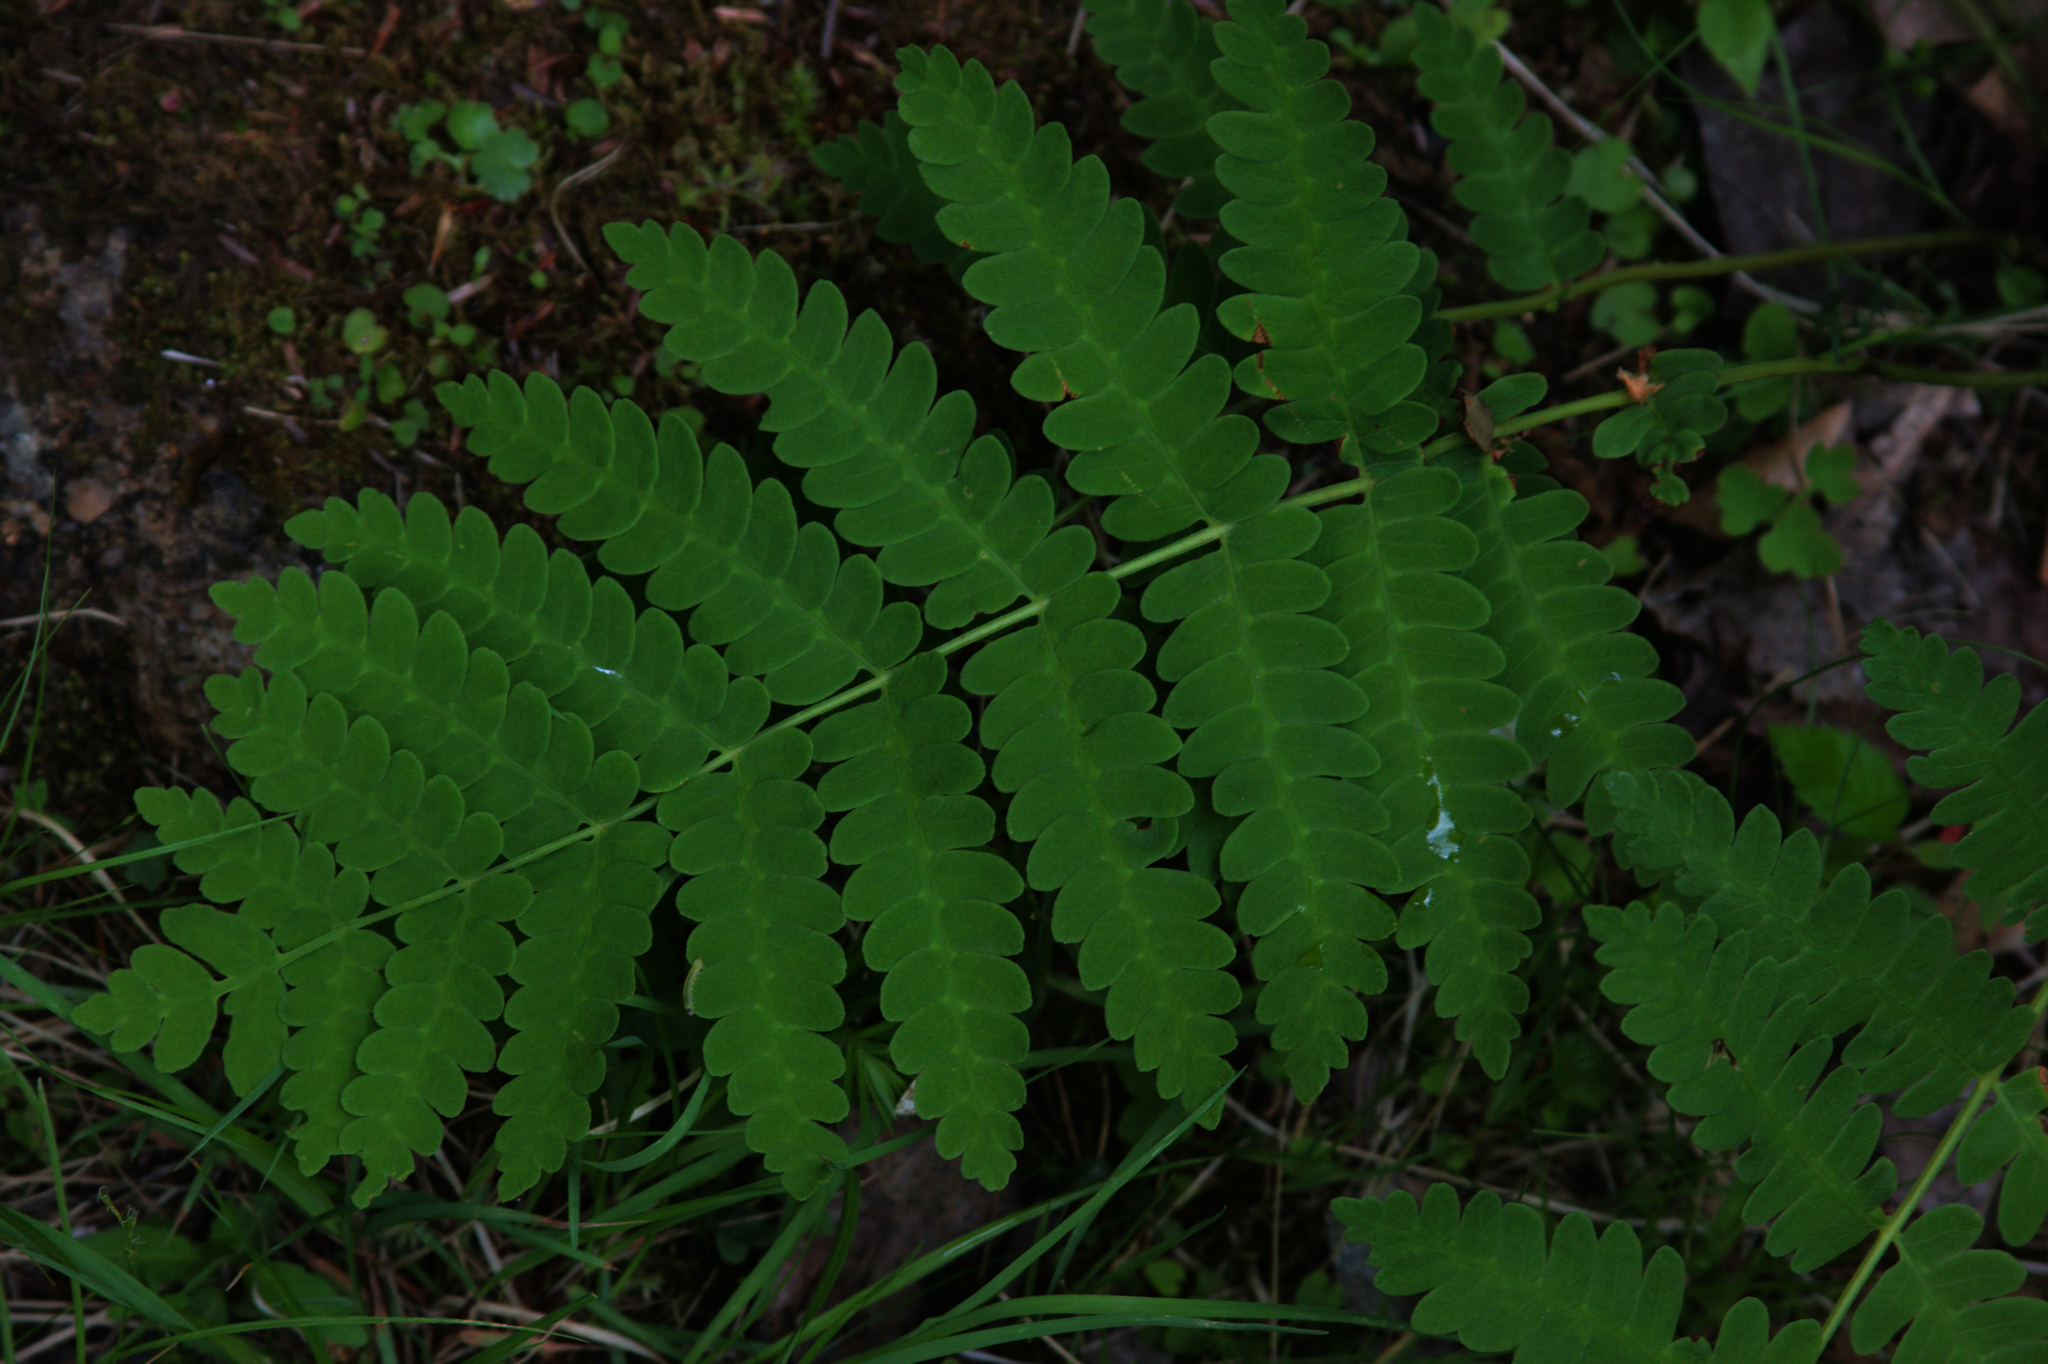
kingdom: Plantae
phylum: Tracheophyta
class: Polypodiopsida
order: Osmundales
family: Osmundaceae
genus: Claytosmunda
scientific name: Claytosmunda claytoniana
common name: Clayton's fern
